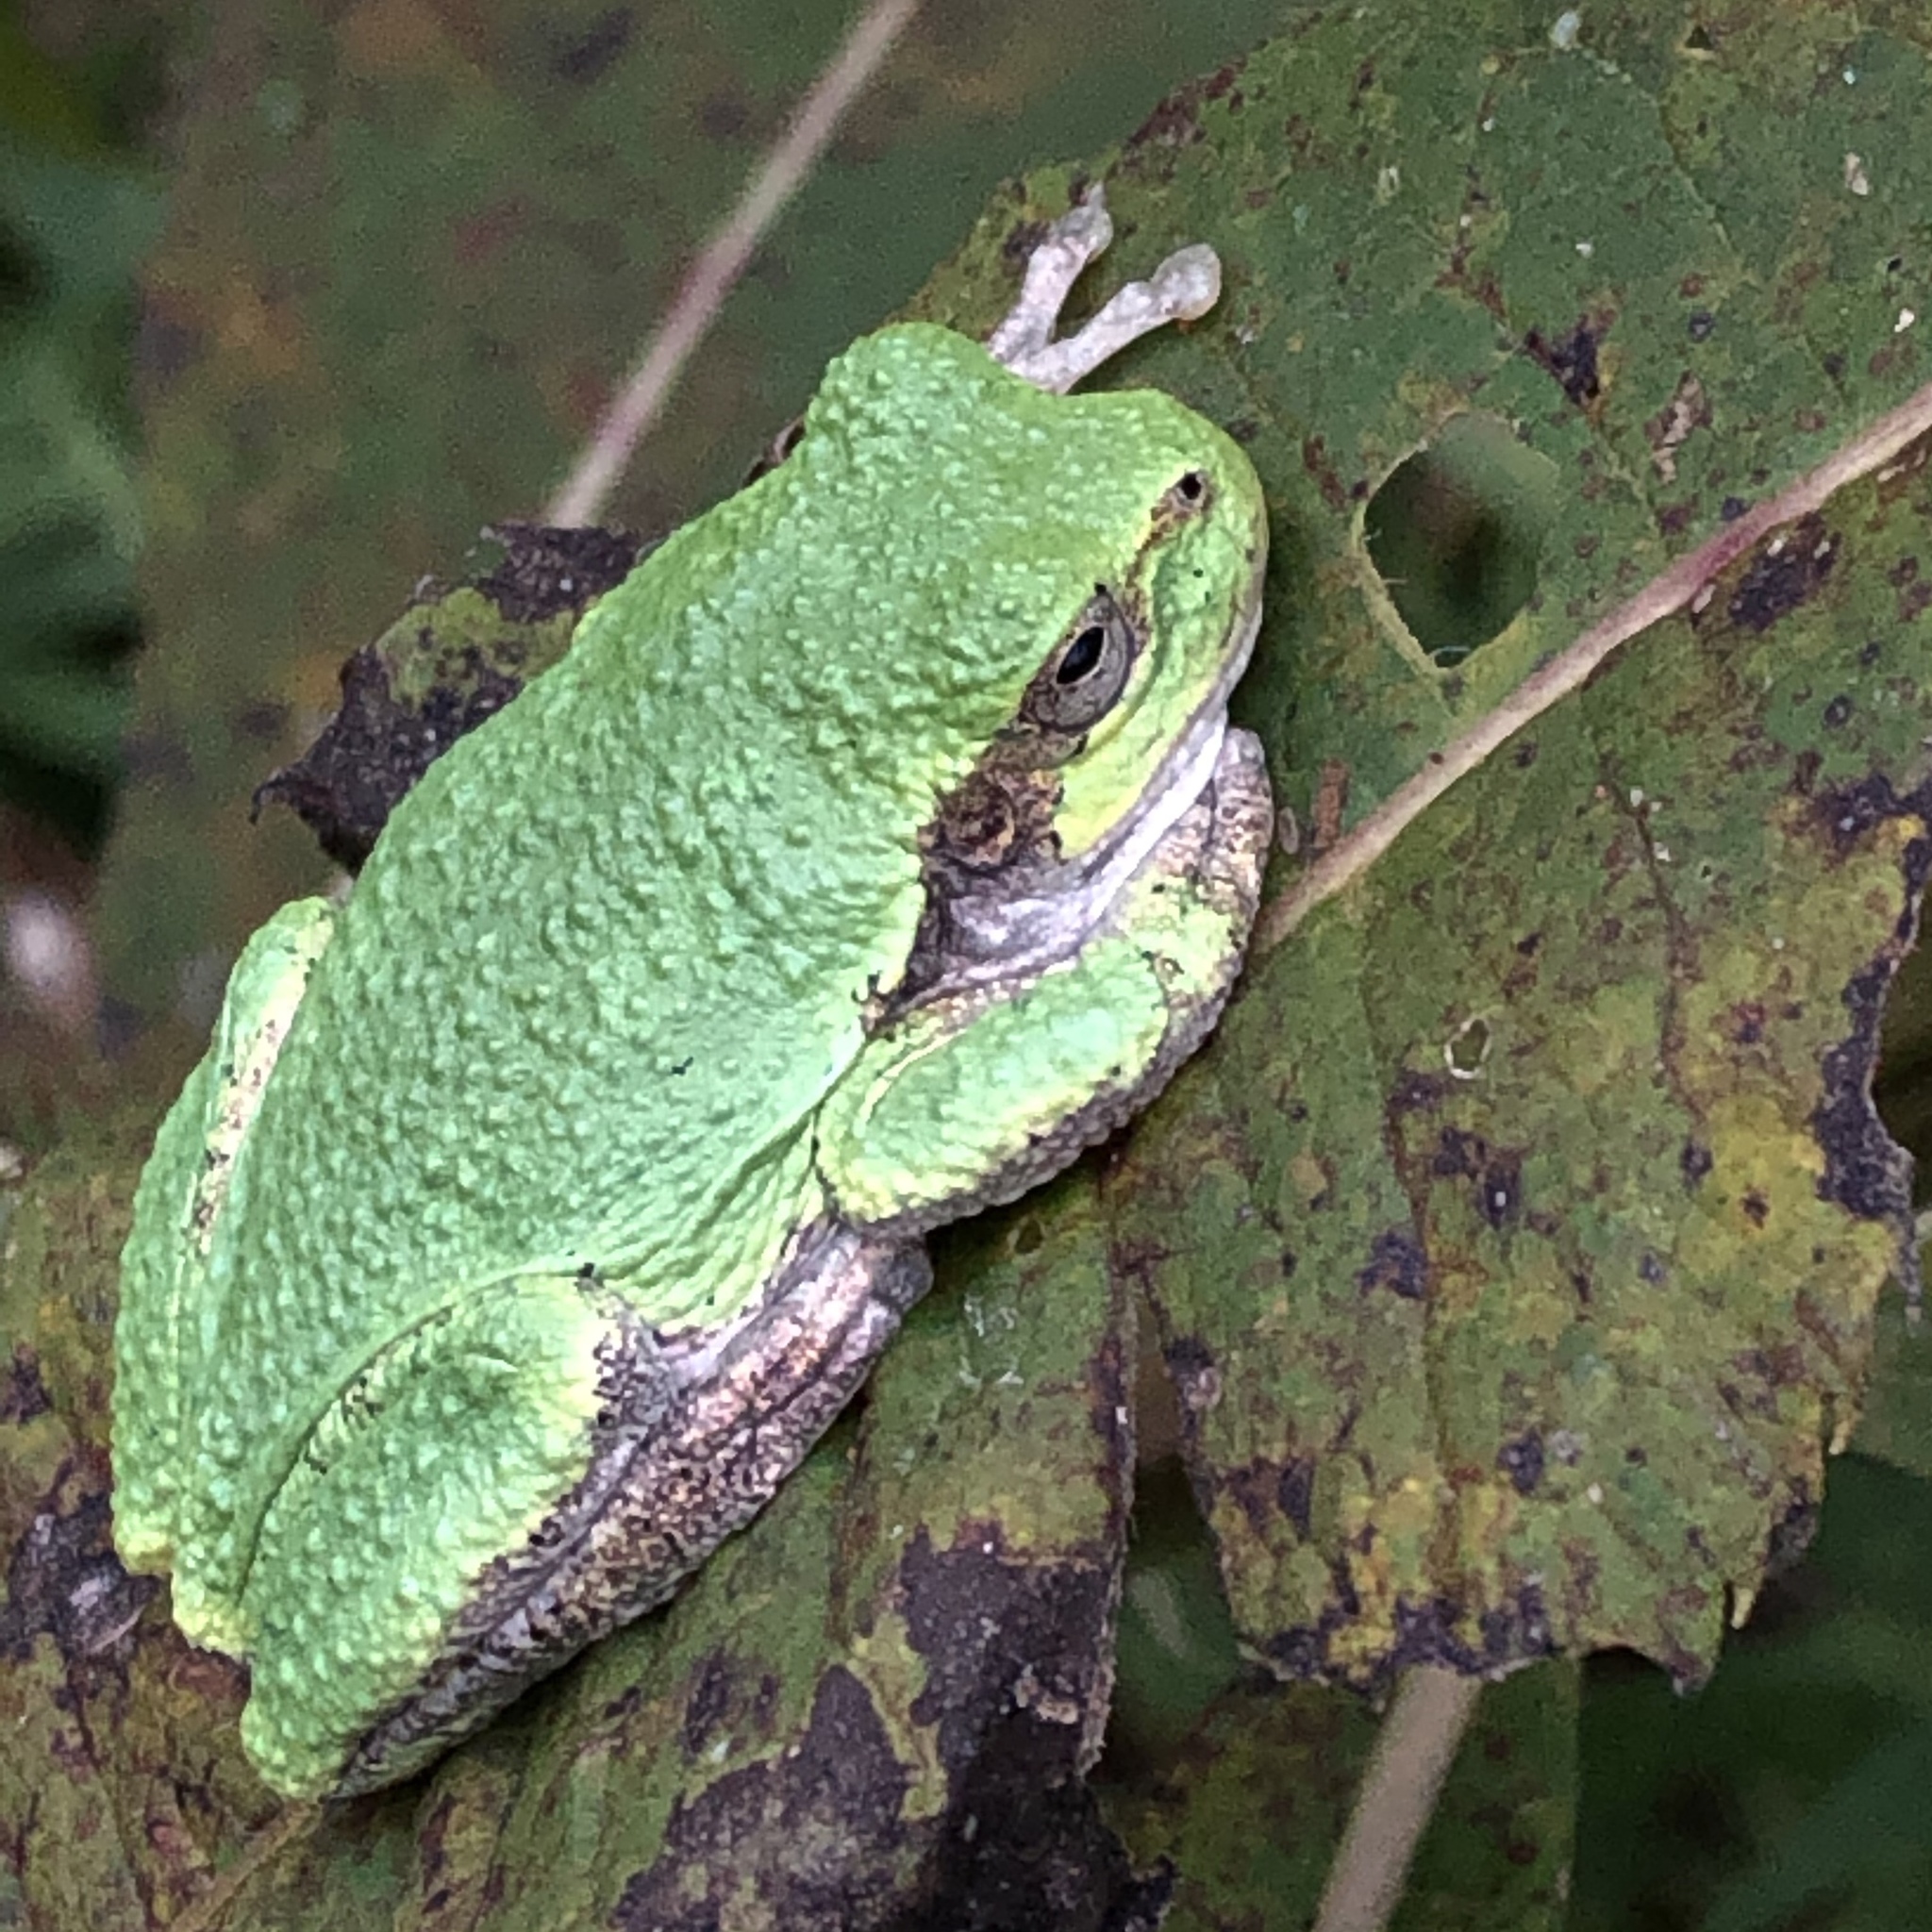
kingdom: Animalia
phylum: Chordata
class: Amphibia
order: Anura
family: Hylidae
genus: Dryophytes
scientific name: Dryophytes versicolor
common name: Gray treefrog
